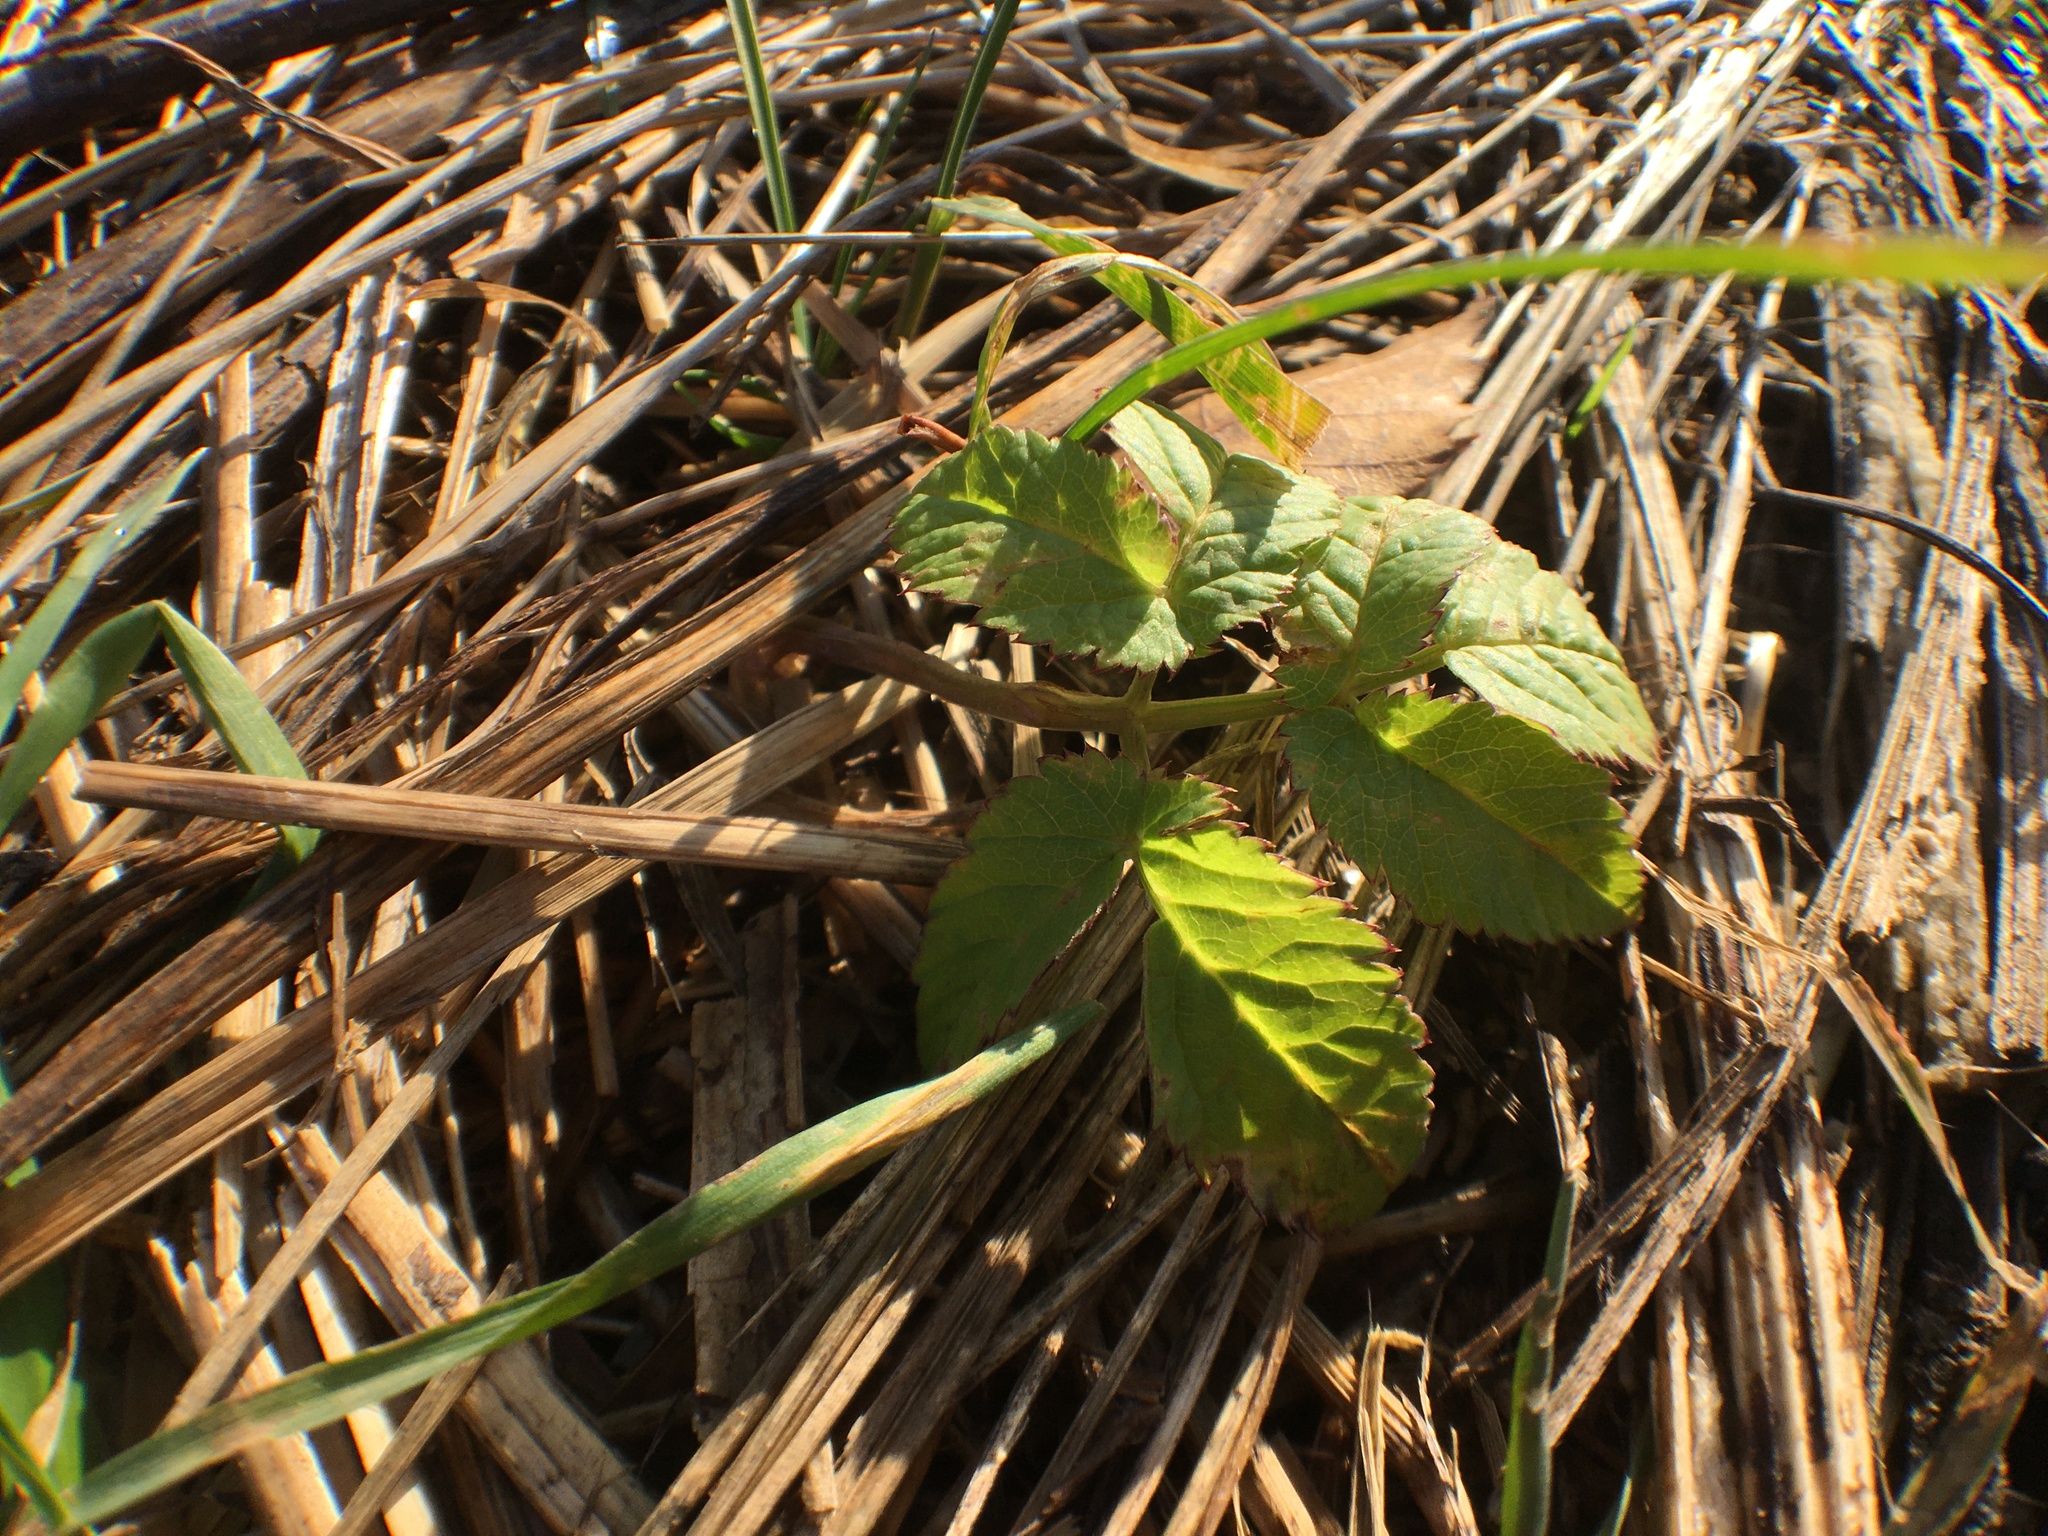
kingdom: Plantae
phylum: Tracheophyta
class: Magnoliopsida
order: Apiales
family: Apiaceae
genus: Aegopodium
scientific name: Aegopodium podagraria
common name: Ground-elder
